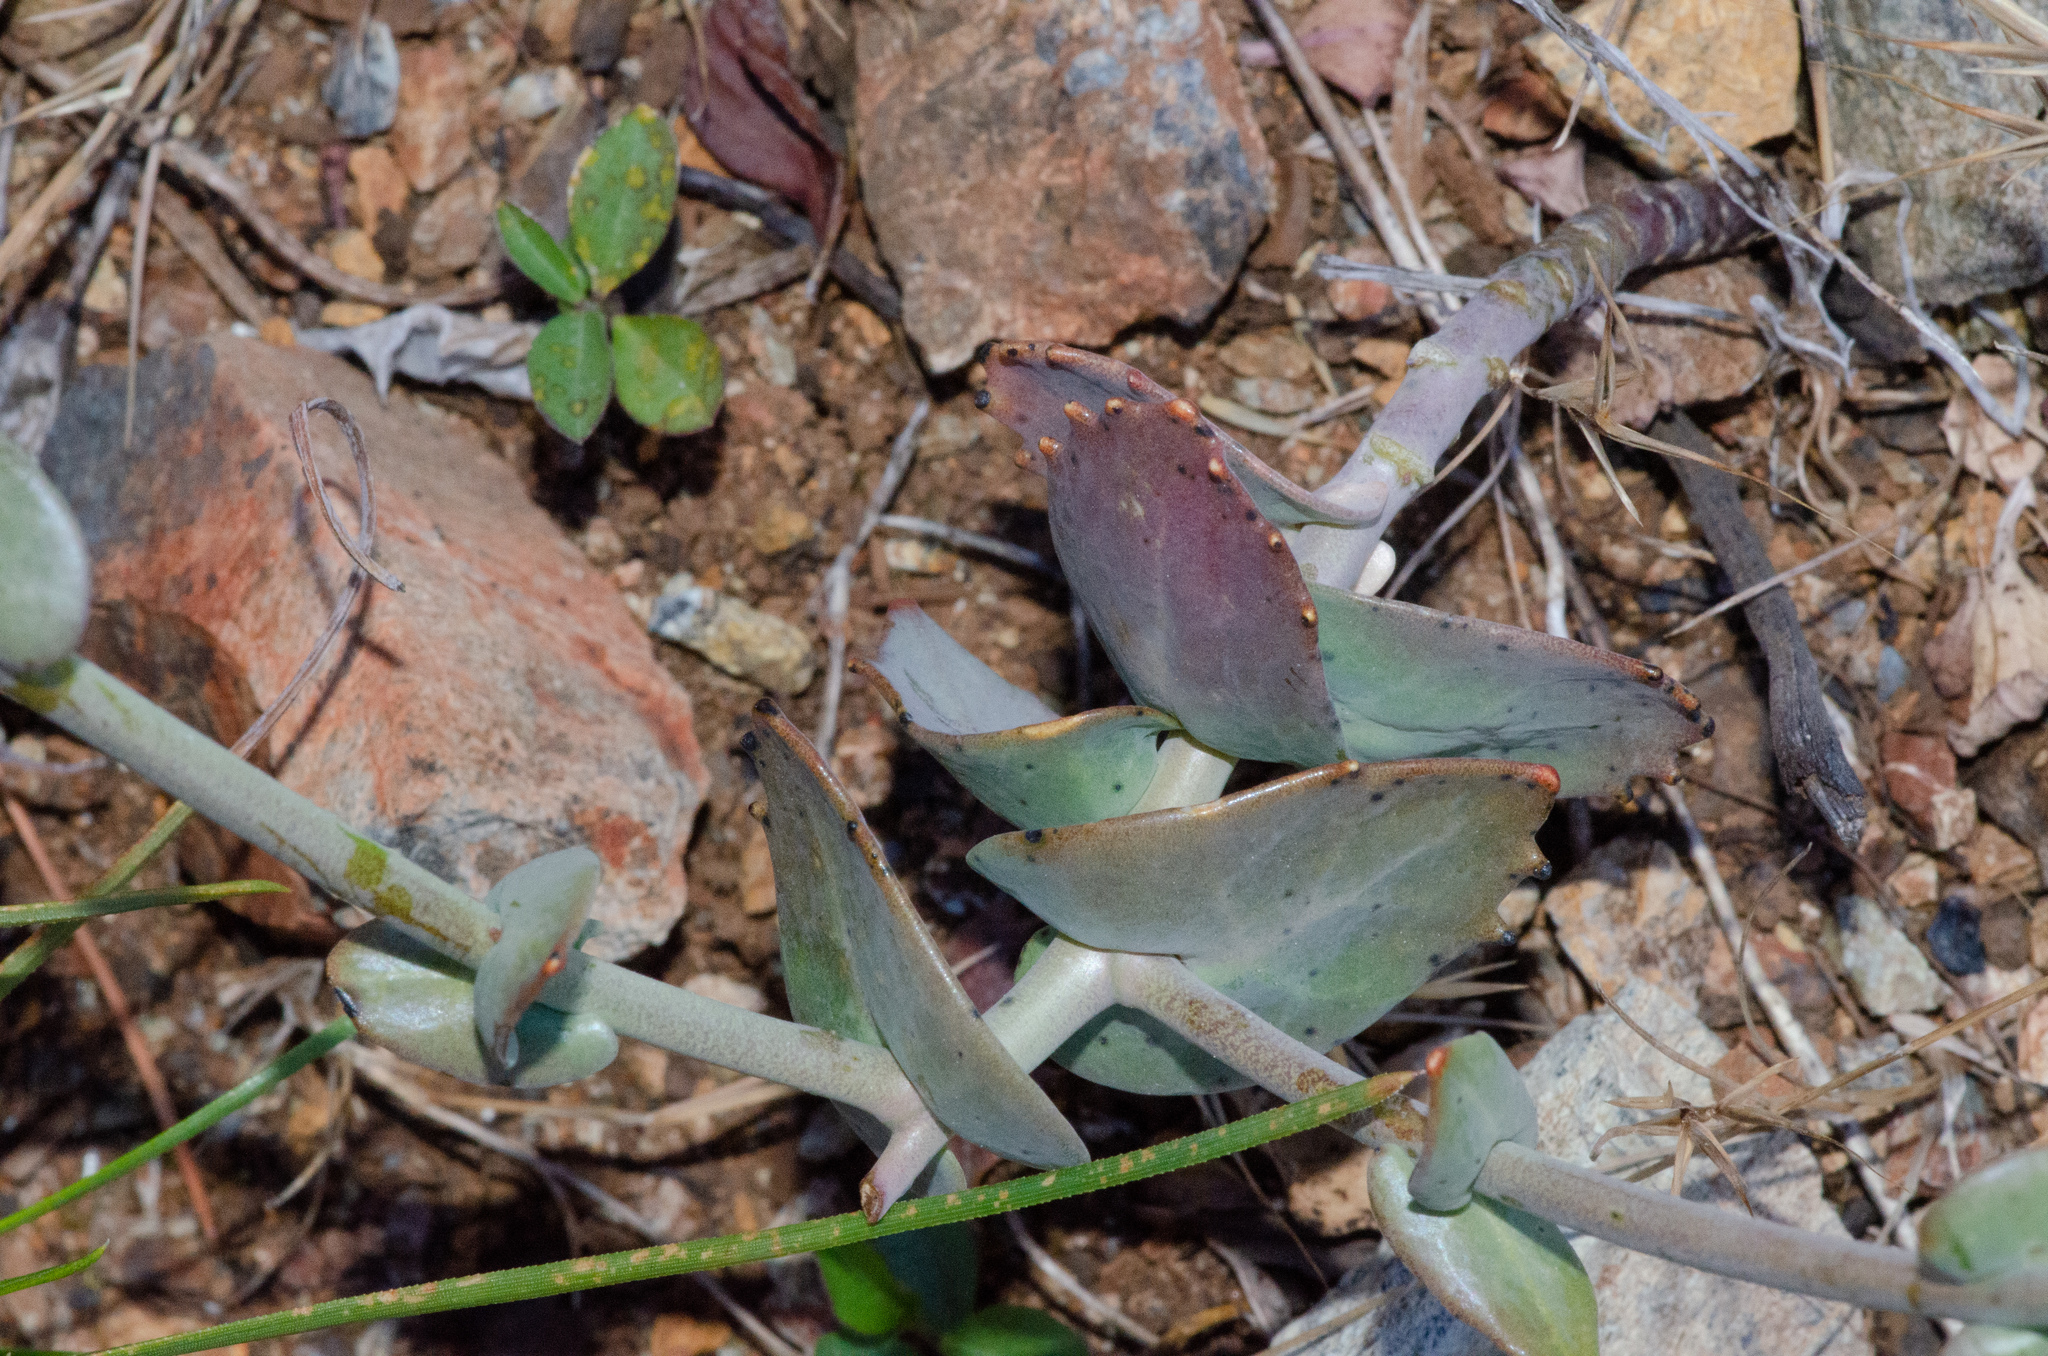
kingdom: Plantae
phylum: Tracheophyta
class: Magnoliopsida
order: Brassicales
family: Brassicaceae
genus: Streptanthus
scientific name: Streptanthus brachiatus
